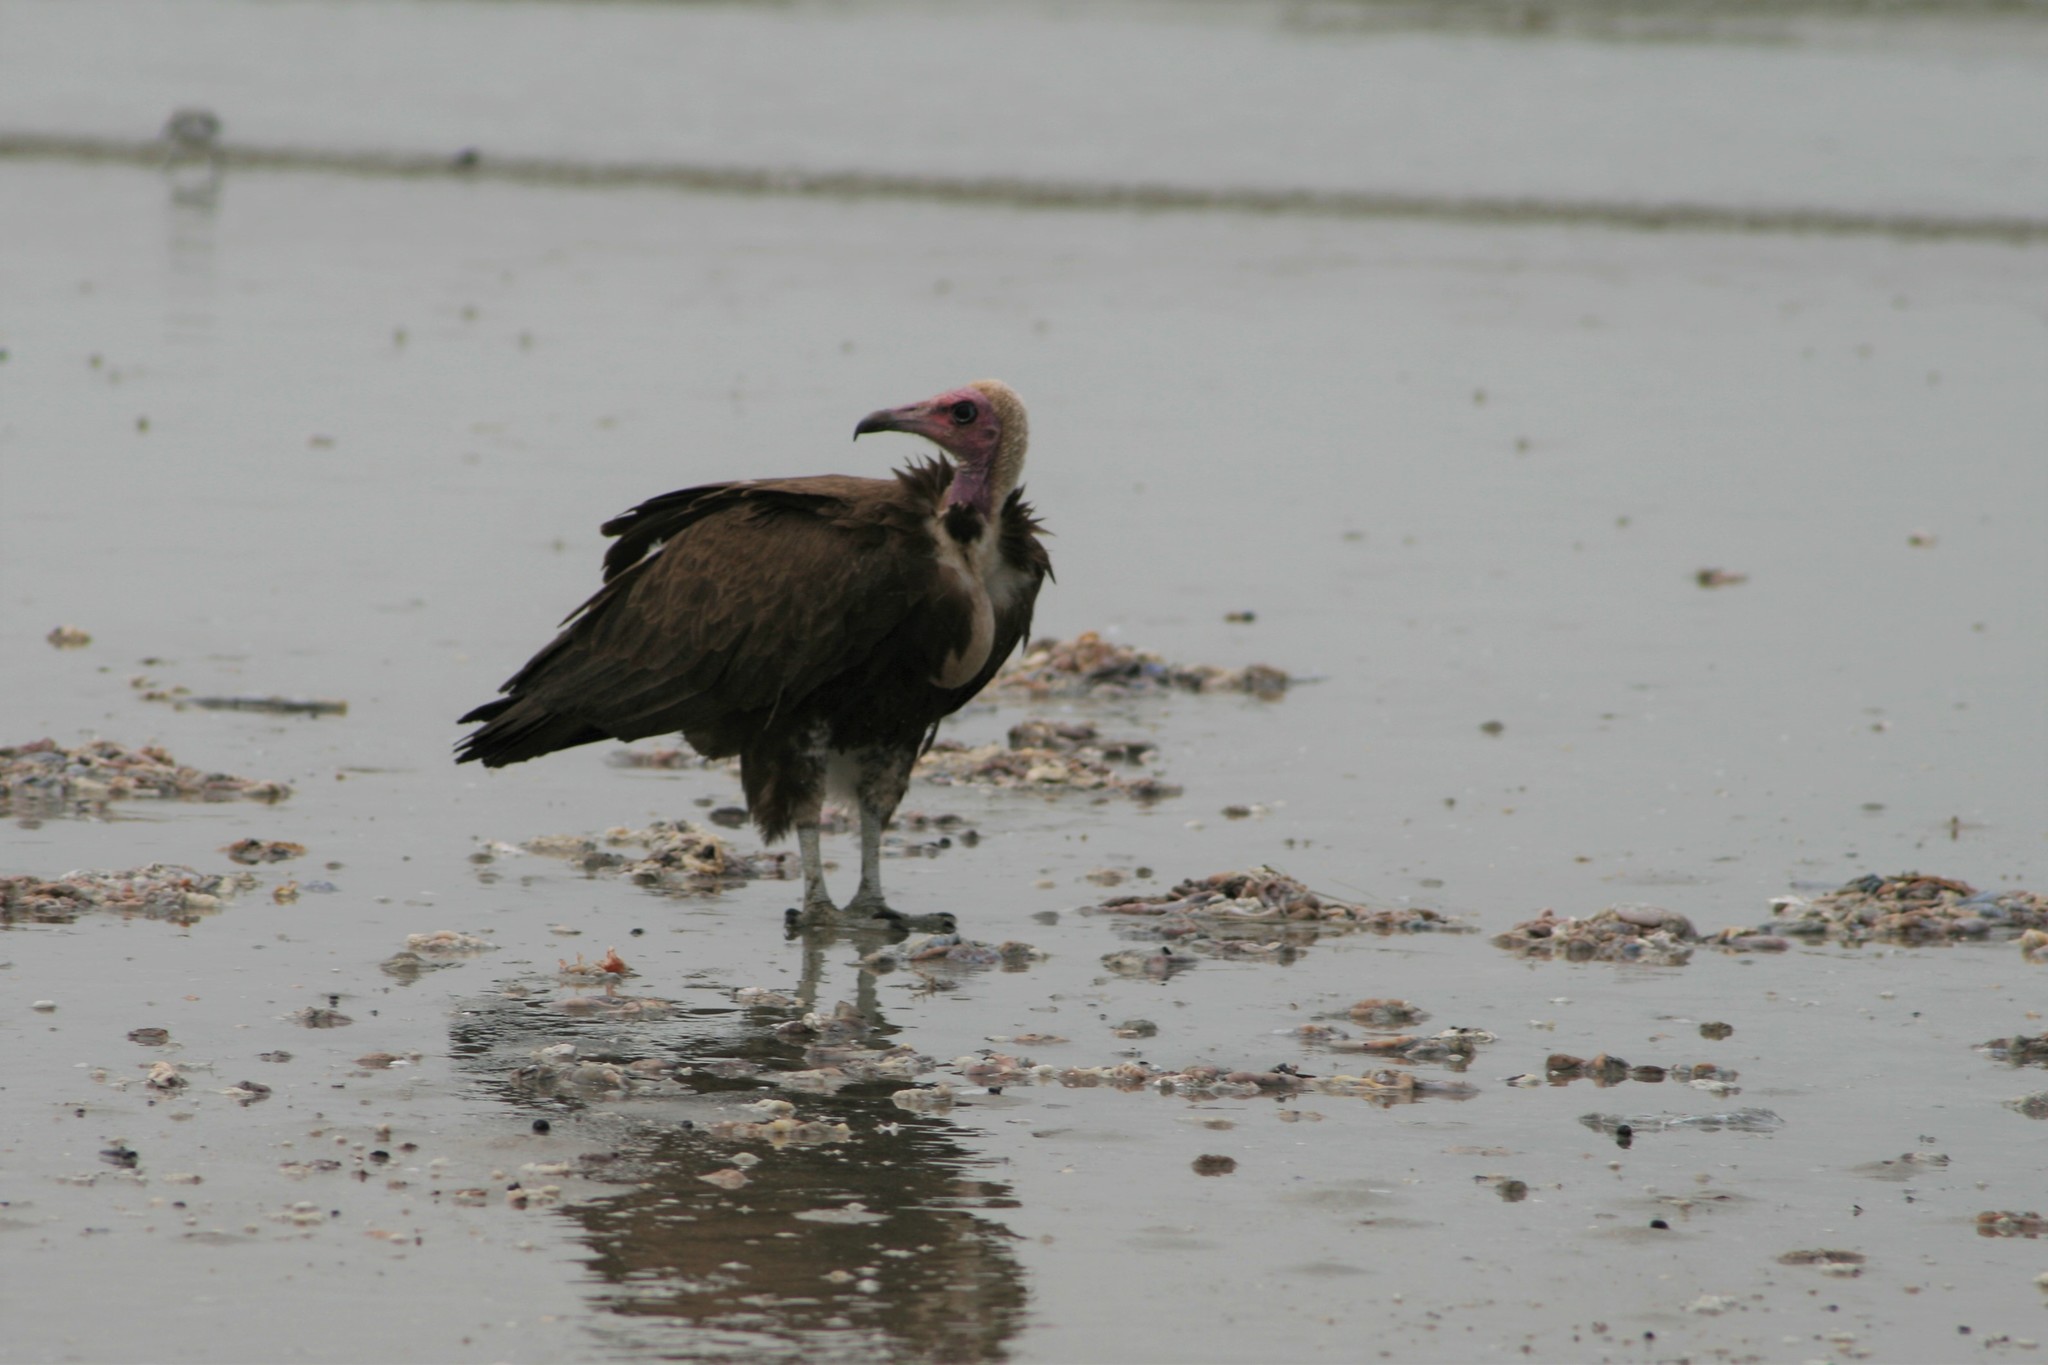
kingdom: Animalia
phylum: Chordata
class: Aves
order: Accipitriformes
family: Accipitridae
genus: Necrosyrtes
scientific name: Necrosyrtes monachus
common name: Hooded vulture
